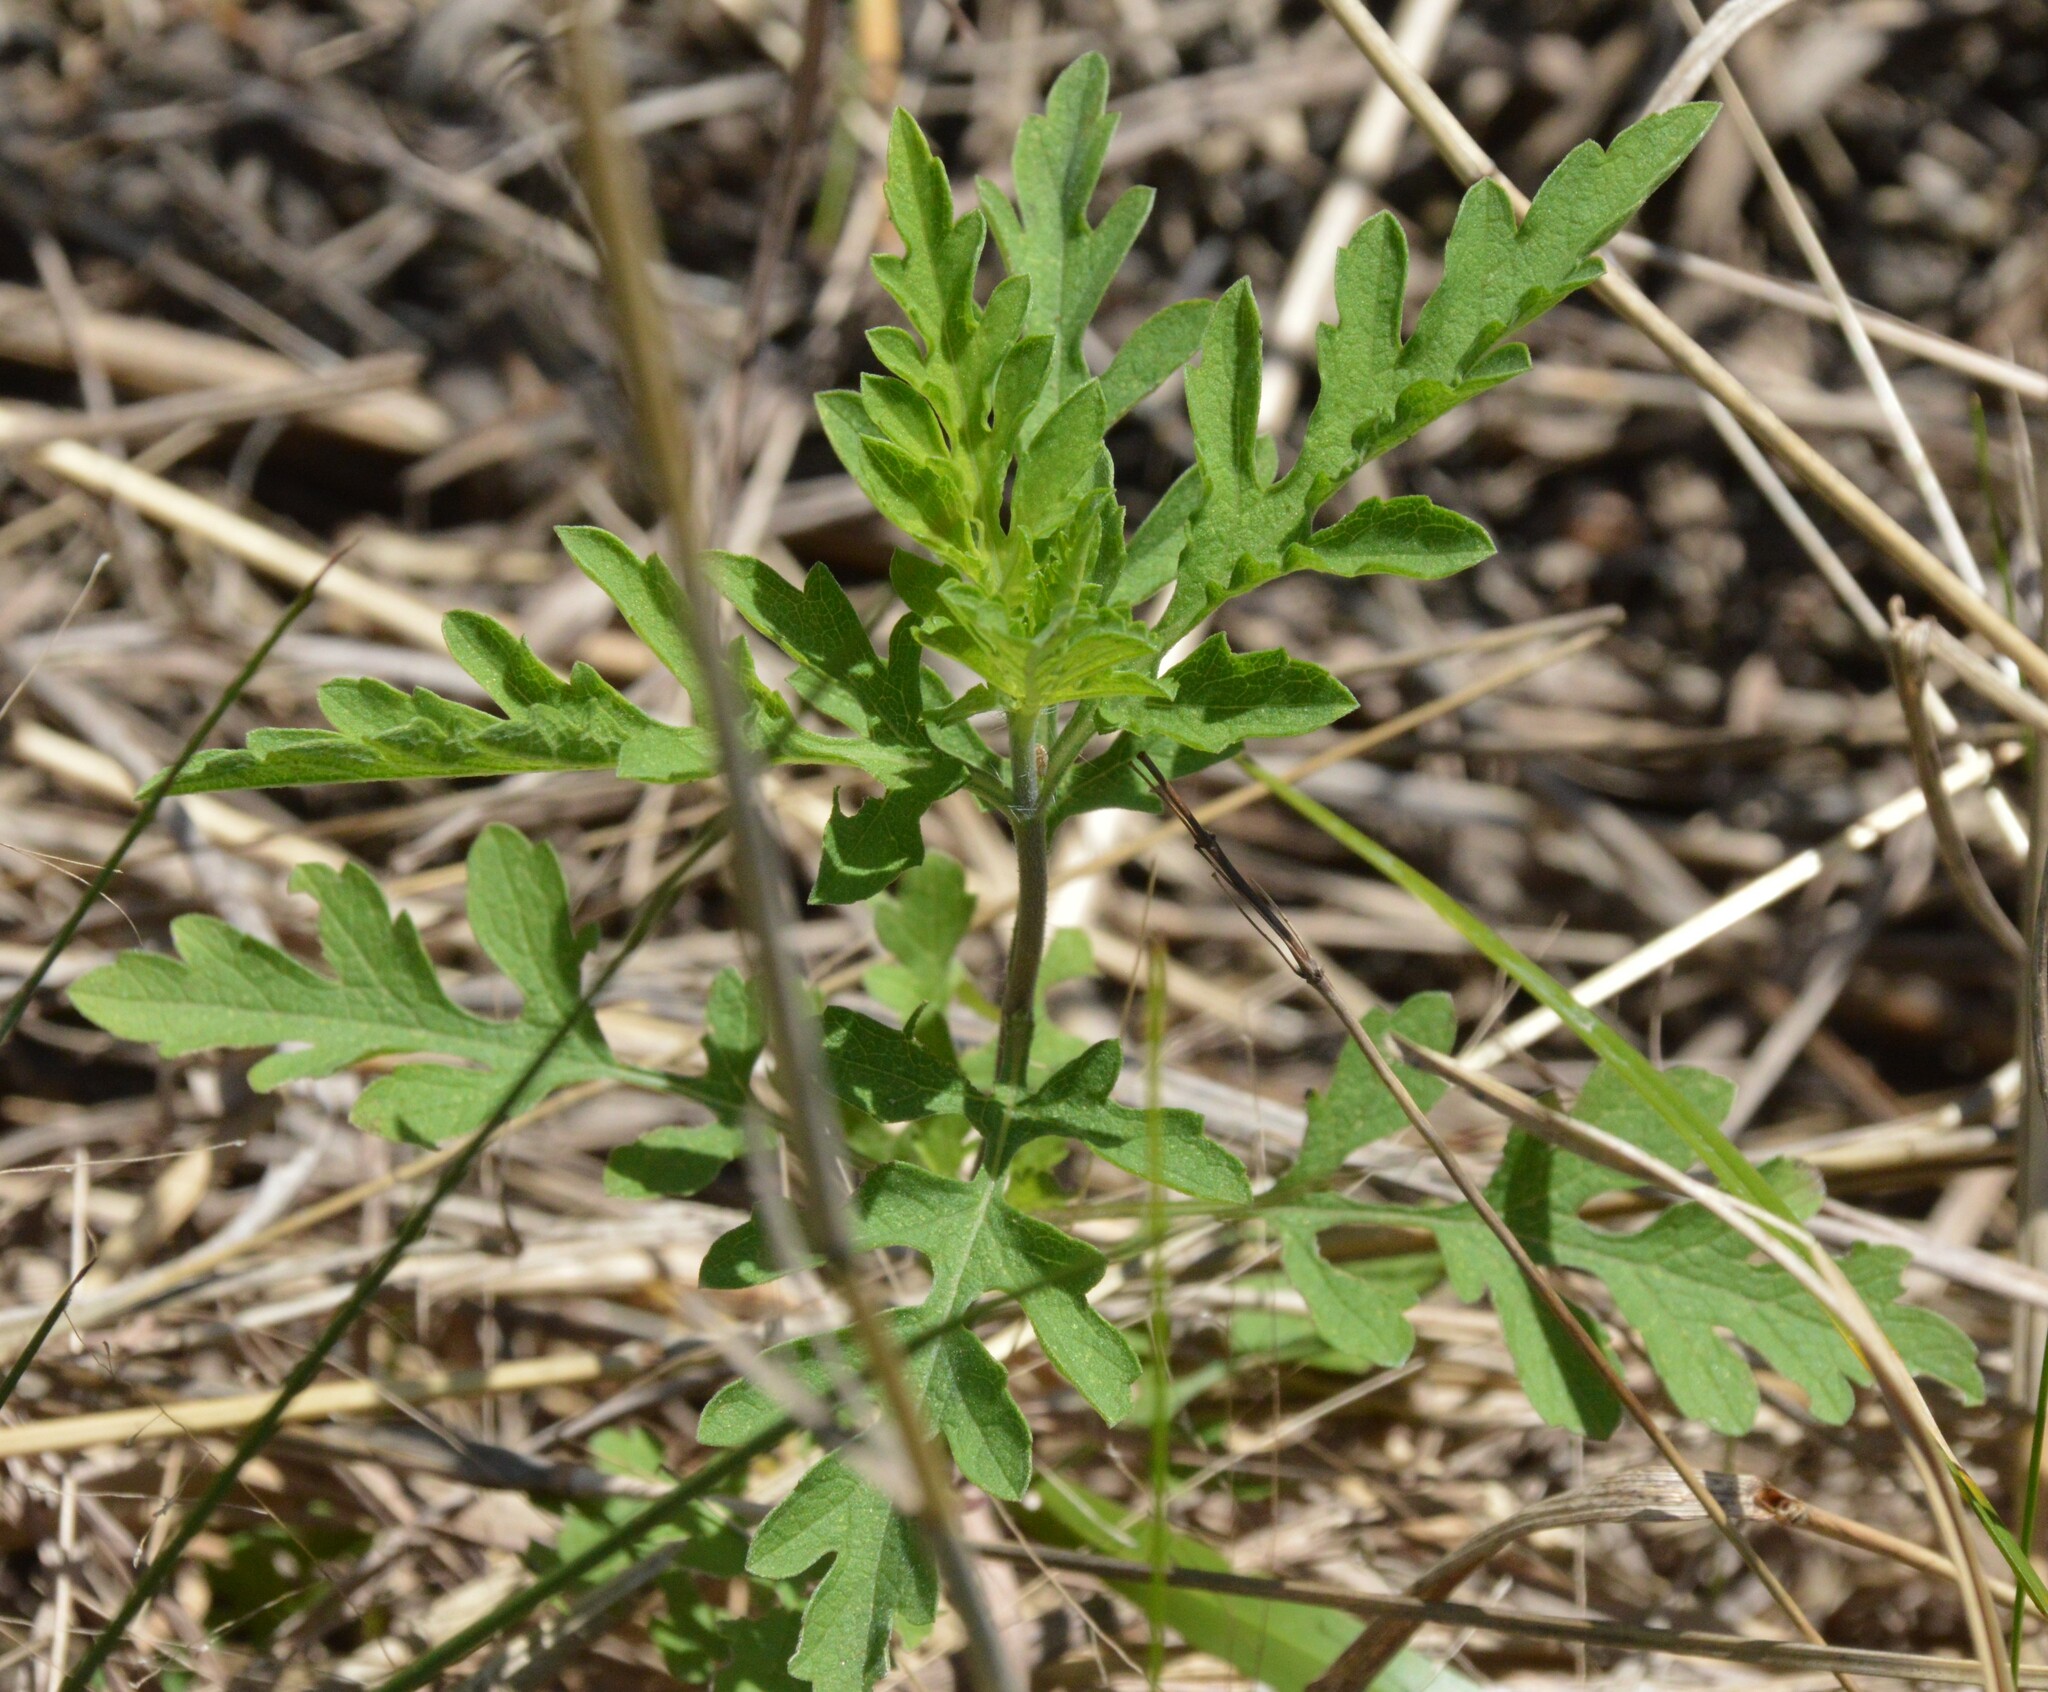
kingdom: Plantae
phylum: Tracheophyta
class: Magnoliopsida
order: Asterales
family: Asteraceae
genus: Ambrosia
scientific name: Ambrosia psilostachya
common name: Perennial ragweed
